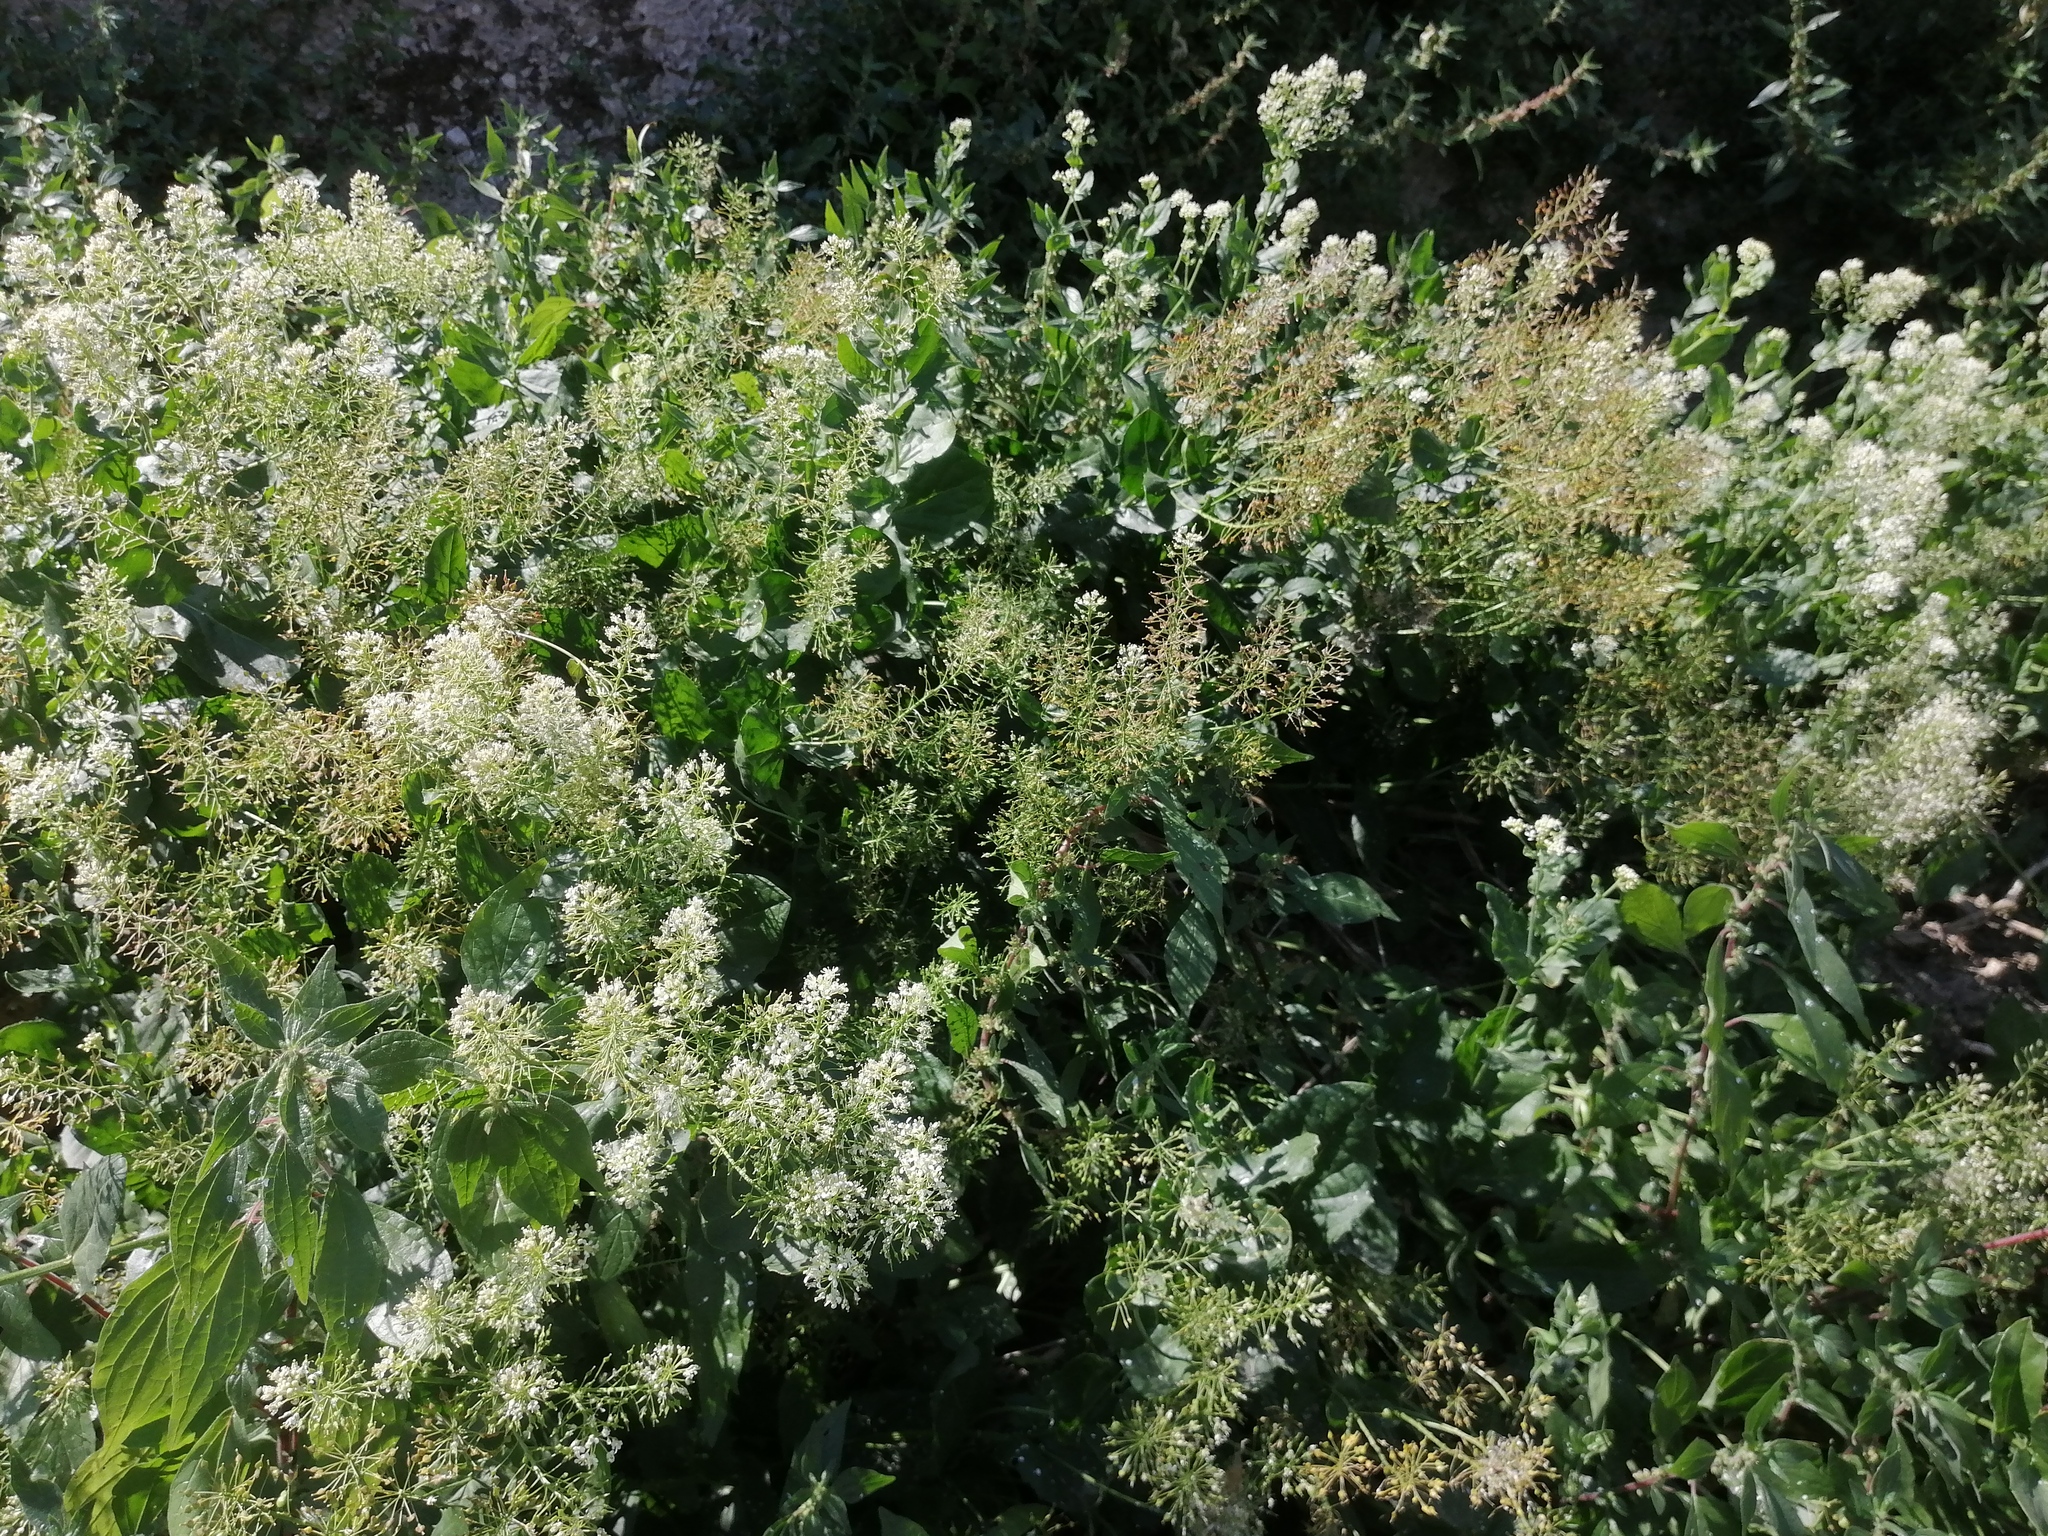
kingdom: Plantae
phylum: Tracheophyta
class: Magnoliopsida
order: Brassicales
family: Brassicaceae
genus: Lepidium
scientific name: Lepidium draba
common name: Hoary cress
